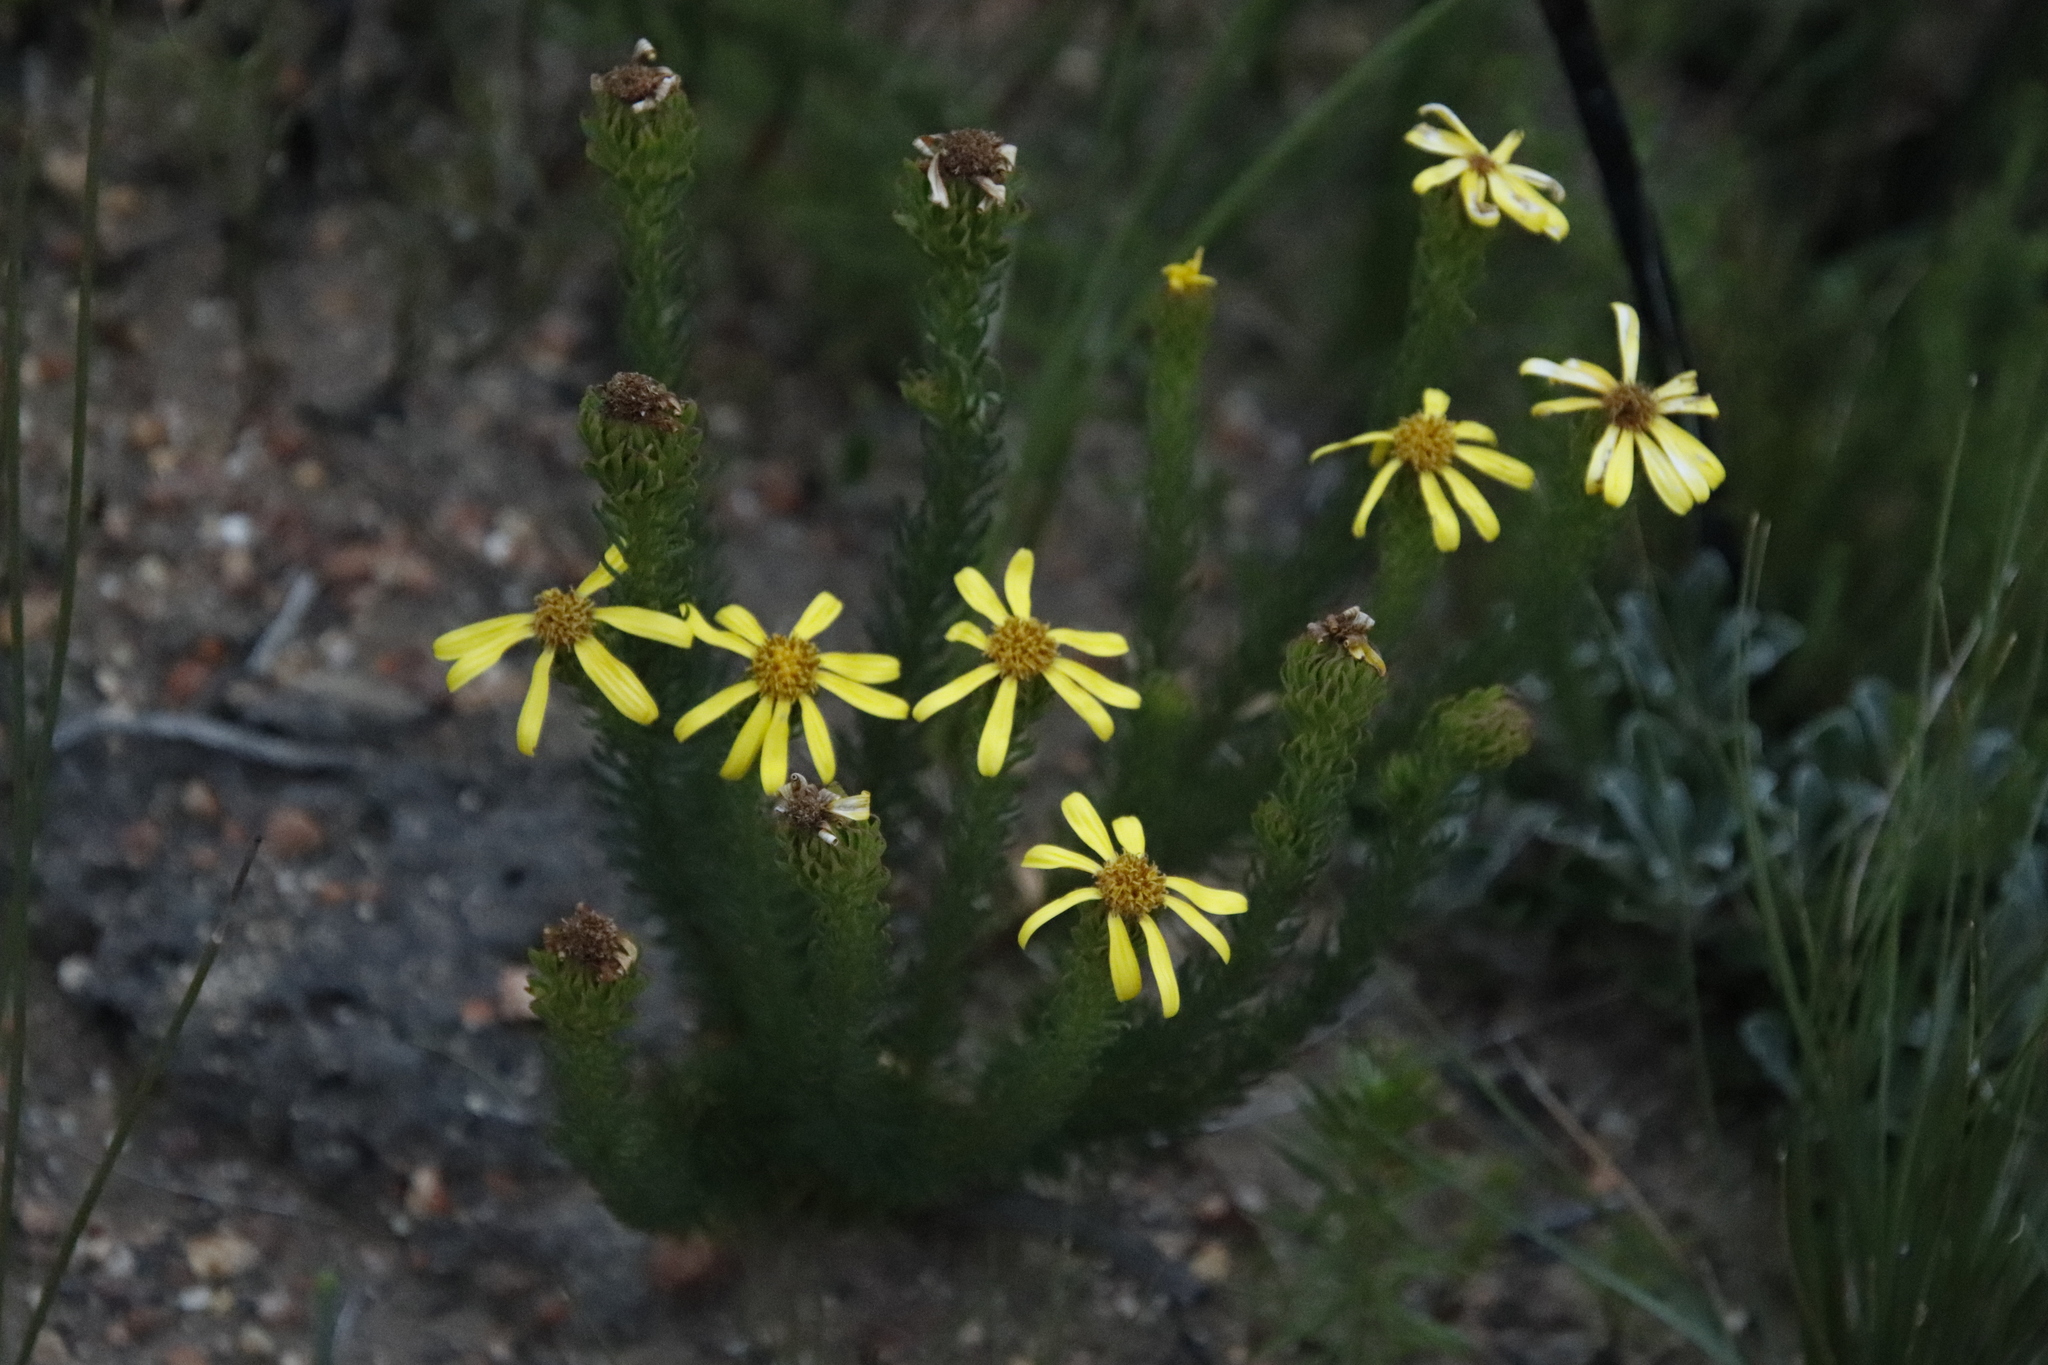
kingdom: Plantae
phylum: Tracheophyta
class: Magnoliopsida
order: Asterales
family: Asteraceae
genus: Senecio
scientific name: Senecio pinifolius
